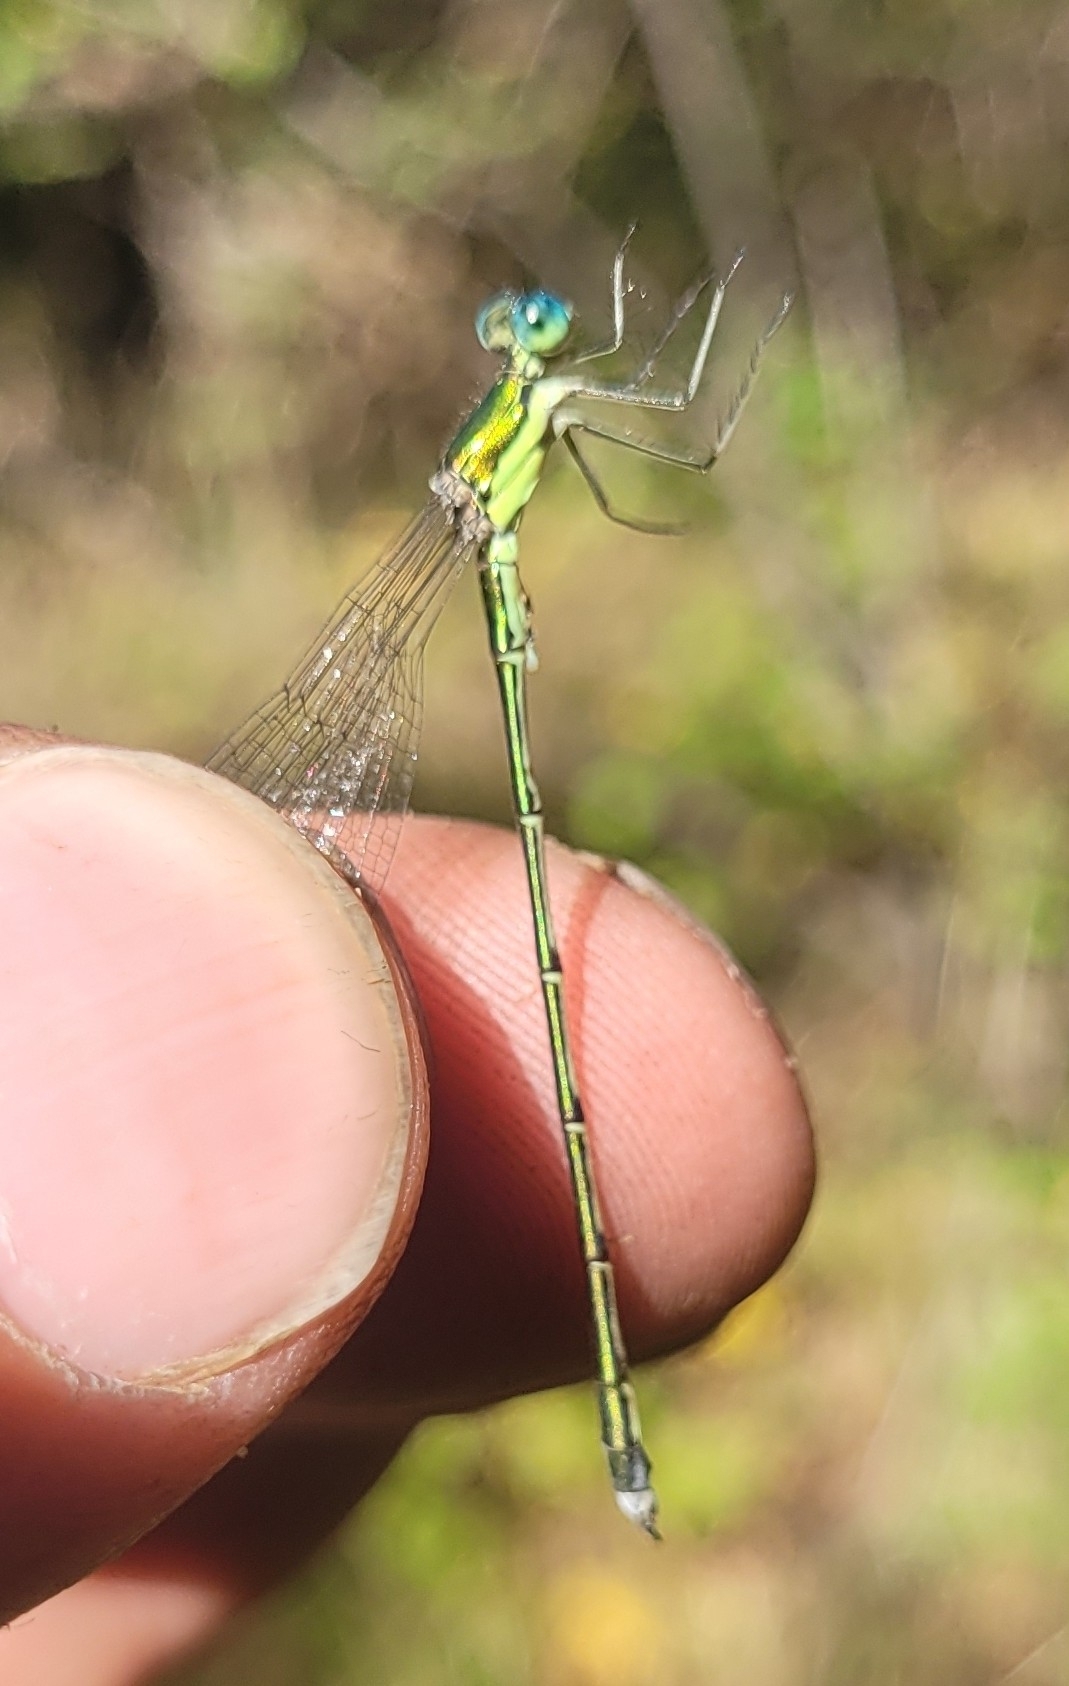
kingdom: Animalia
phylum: Arthropoda
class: Insecta
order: Odonata
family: Lestidae
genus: Lestes
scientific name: Lestes temporalis
